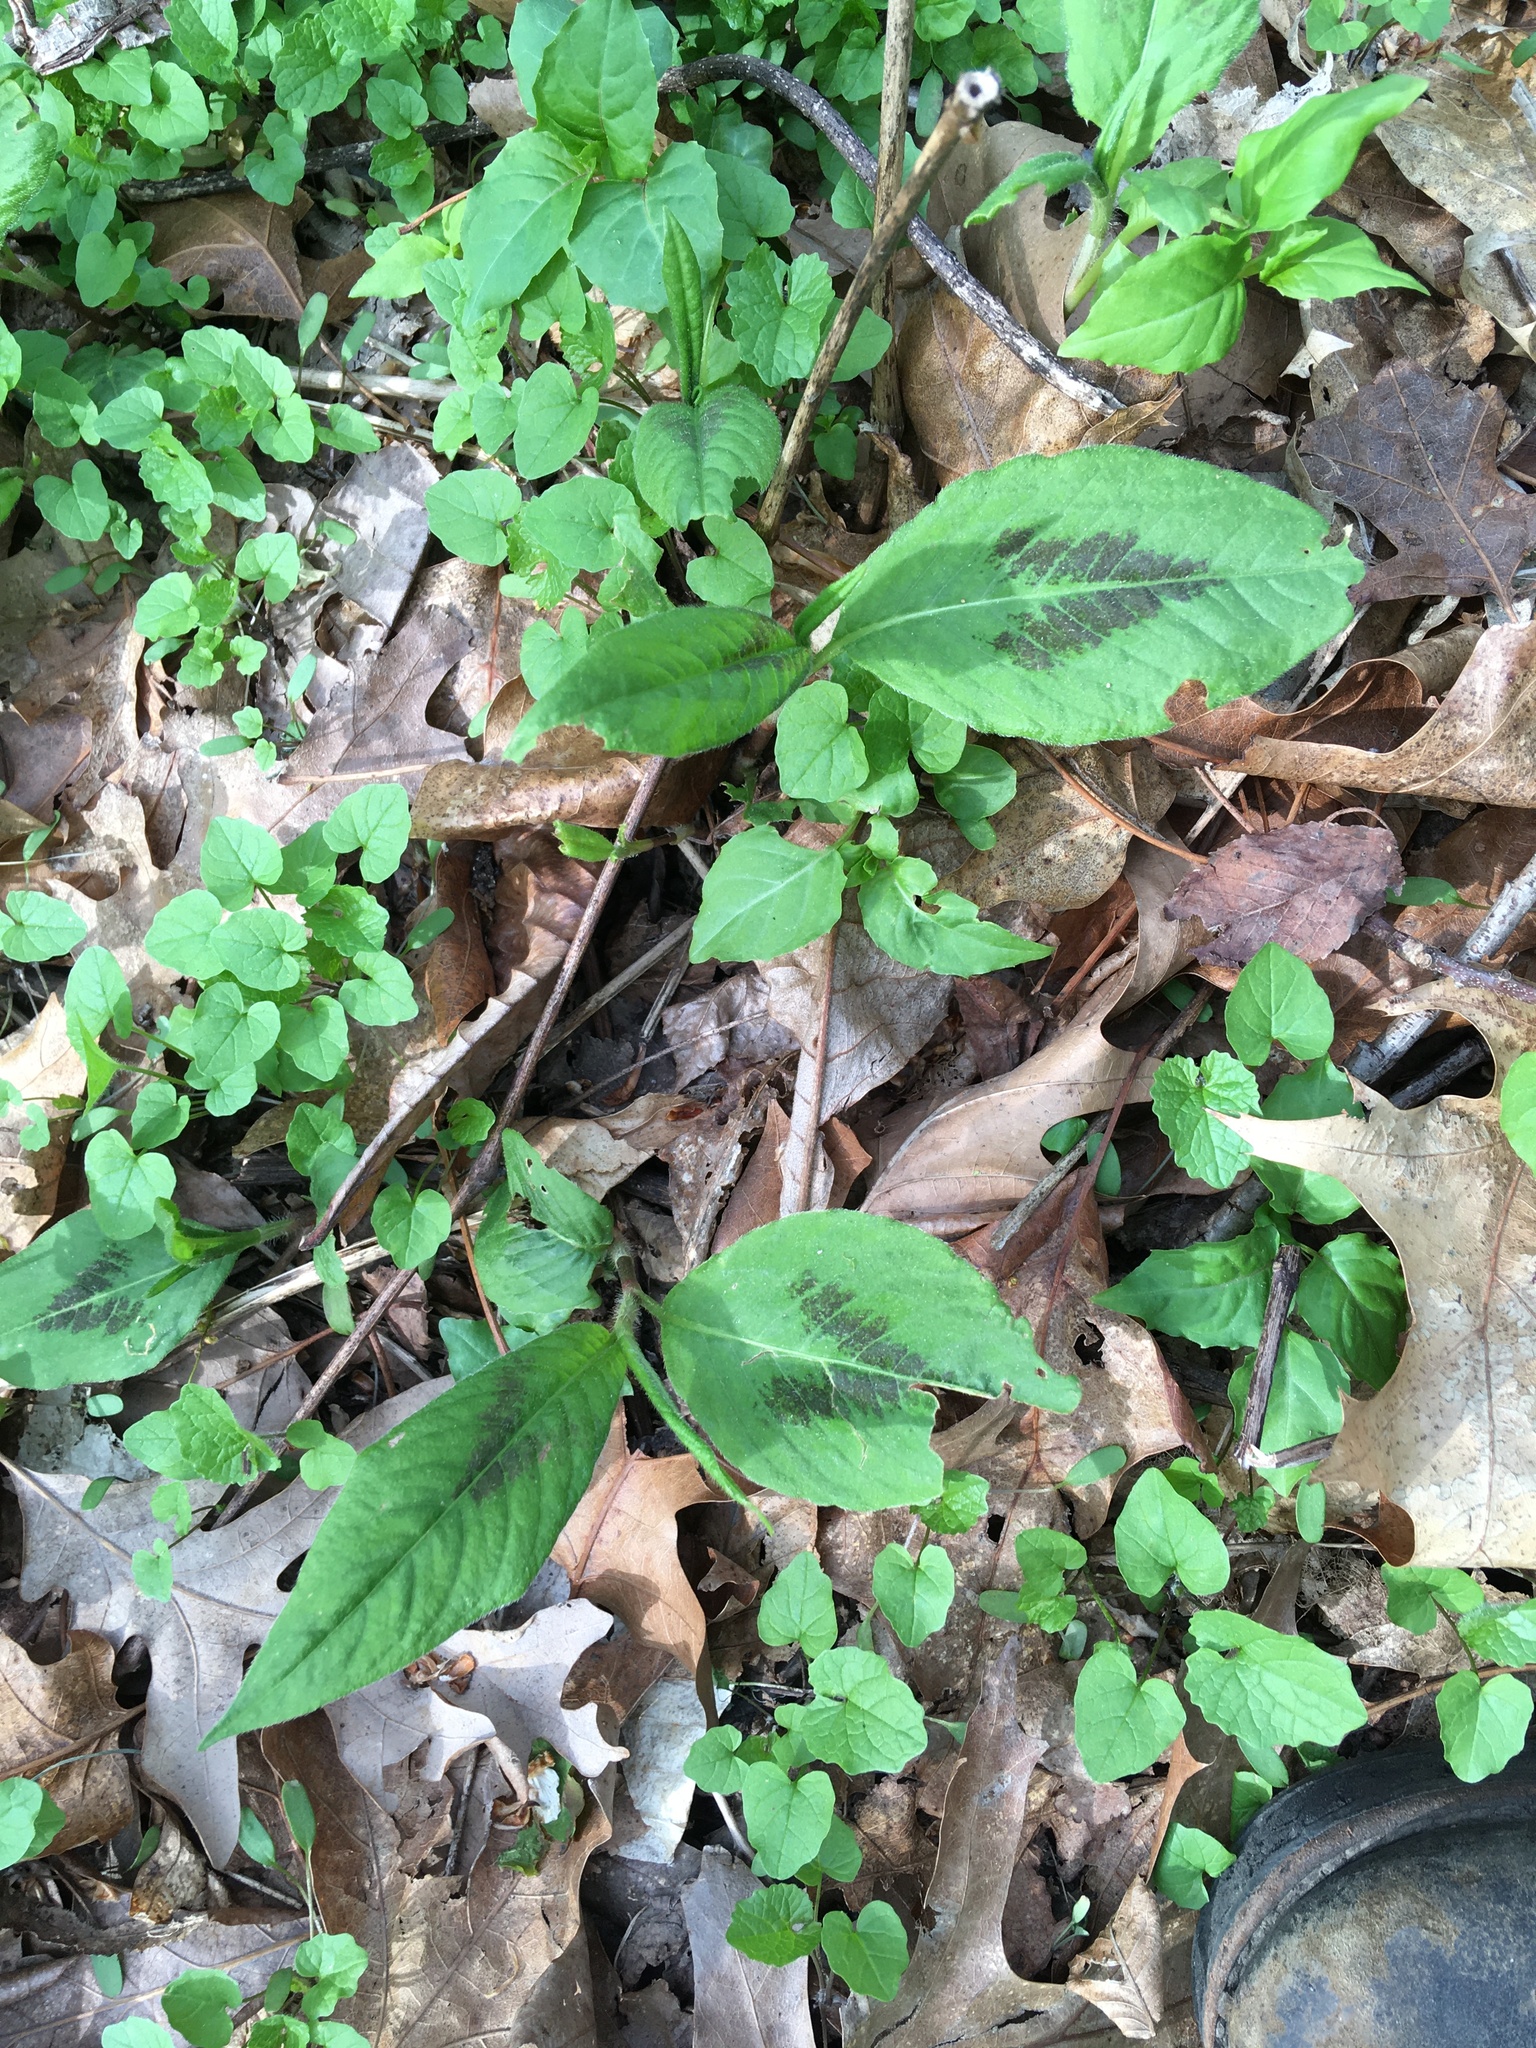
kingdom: Plantae
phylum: Tracheophyta
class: Magnoliopsida
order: Caryophyllales
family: Polygonaceae
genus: Persicaria
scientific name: Persicaria virginiana
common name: Jumpseed
